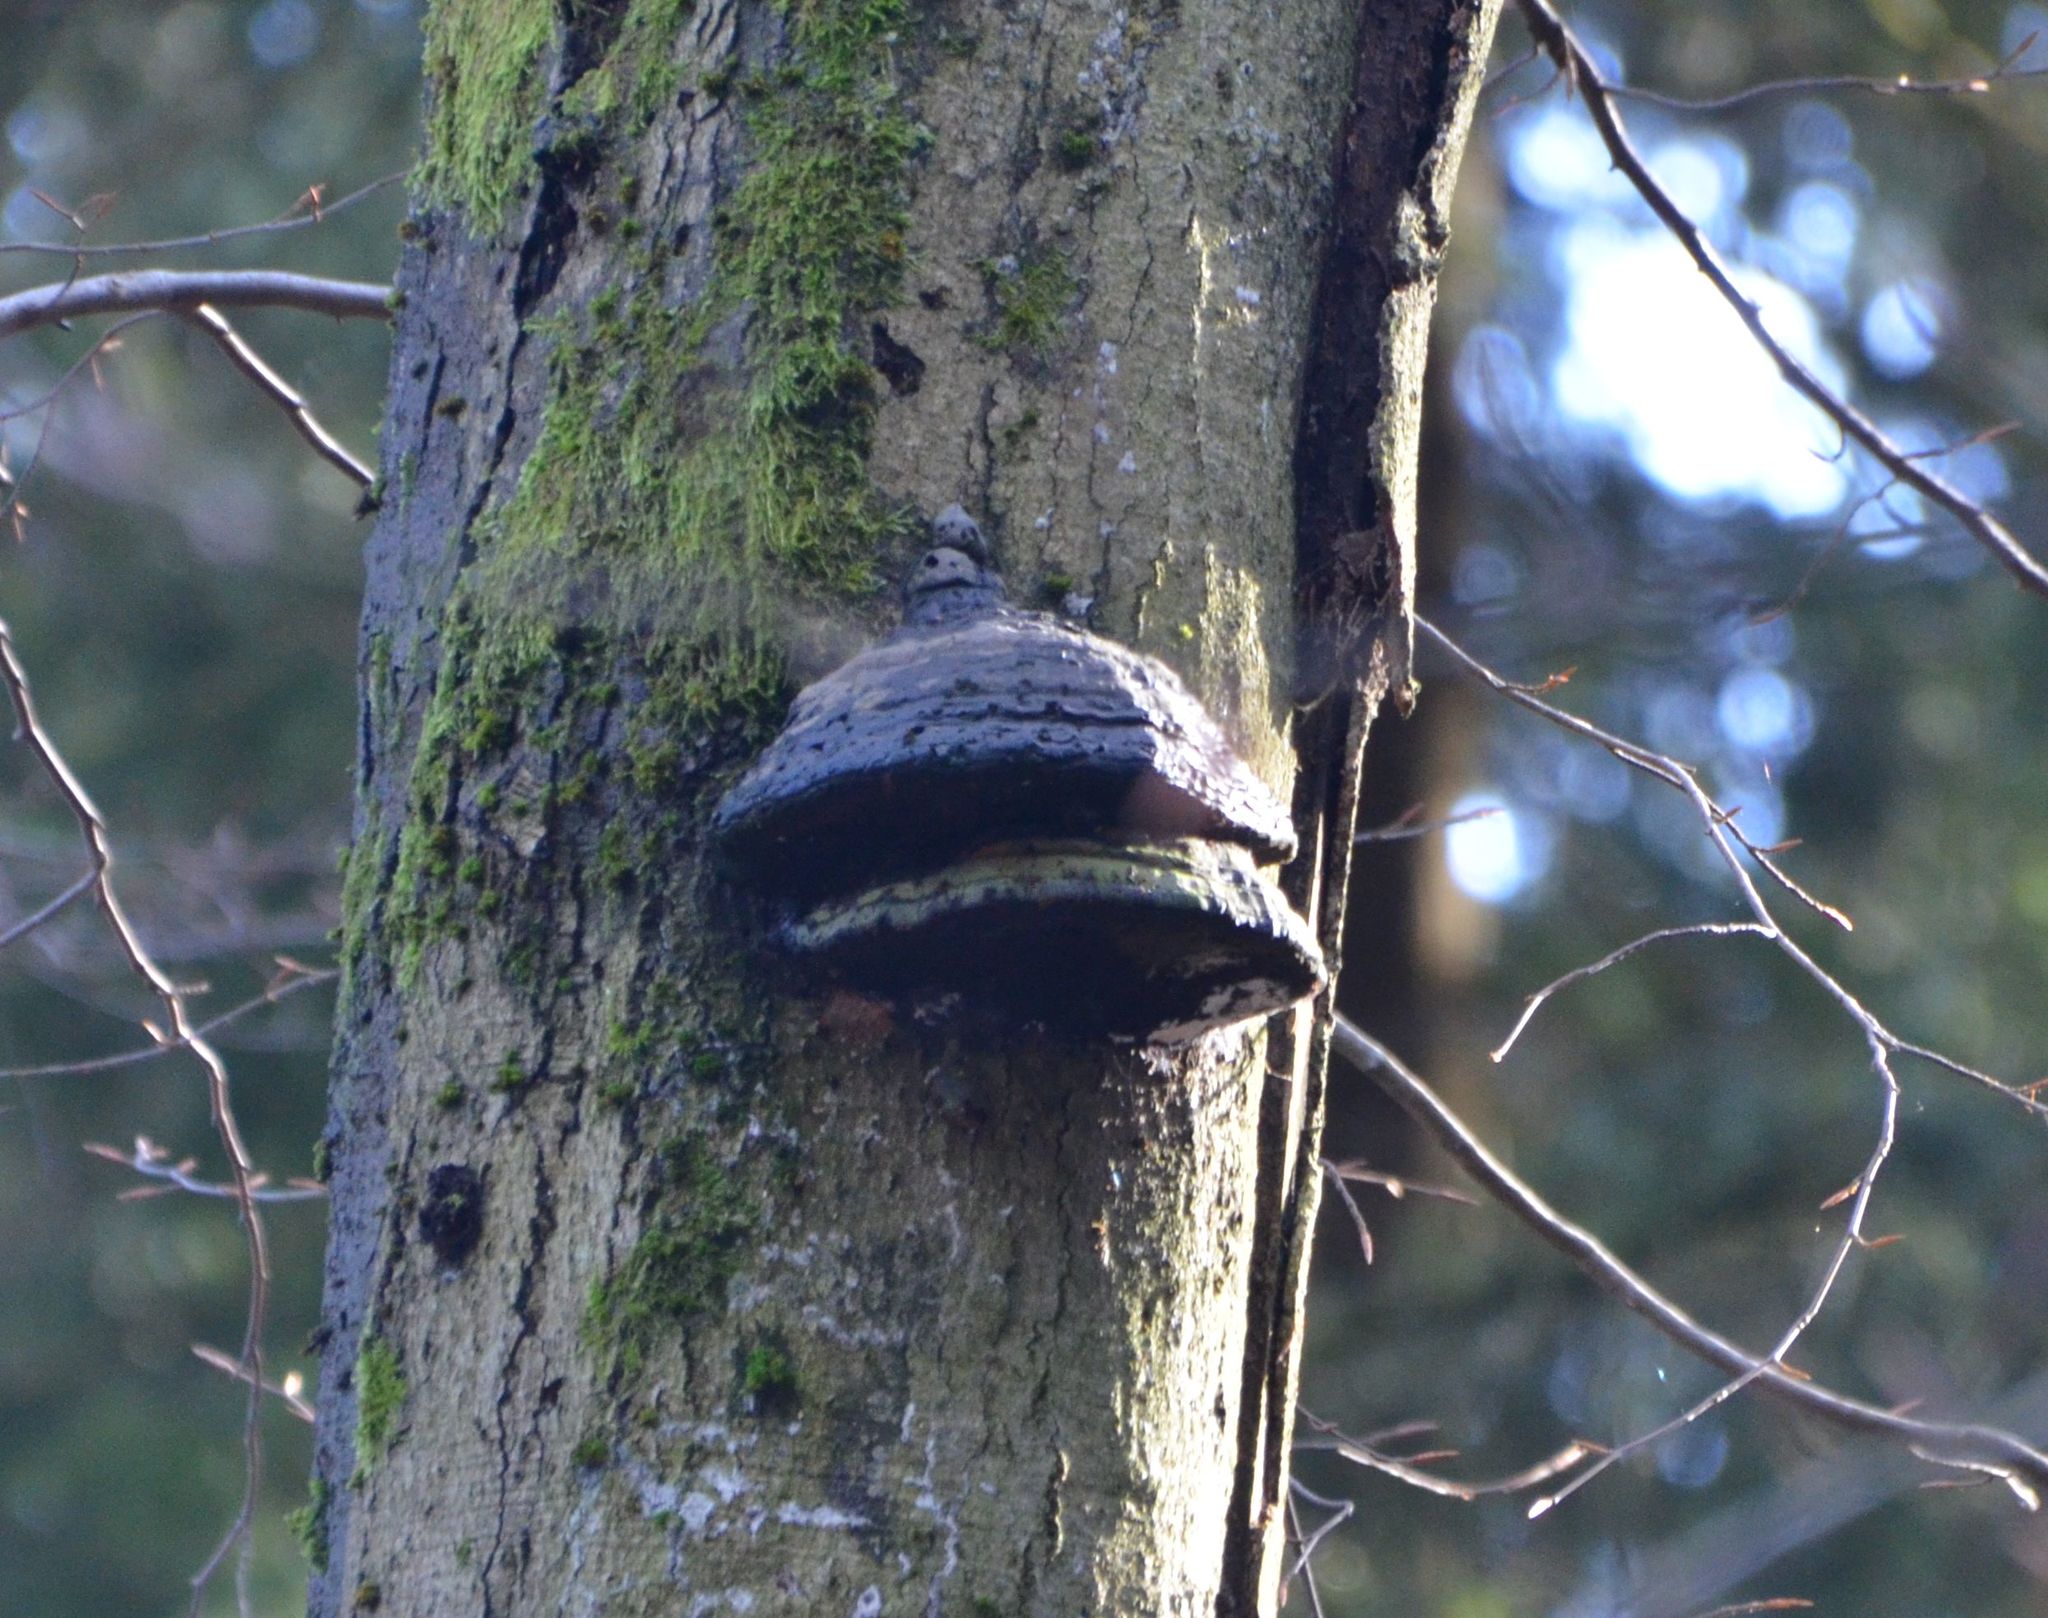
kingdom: Fungi
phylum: Basidiomycota
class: Agaricomycetes
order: Polyporales
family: Polyporaceae
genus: Fomes
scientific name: Fomes fomentarius
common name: Hoof fungus
